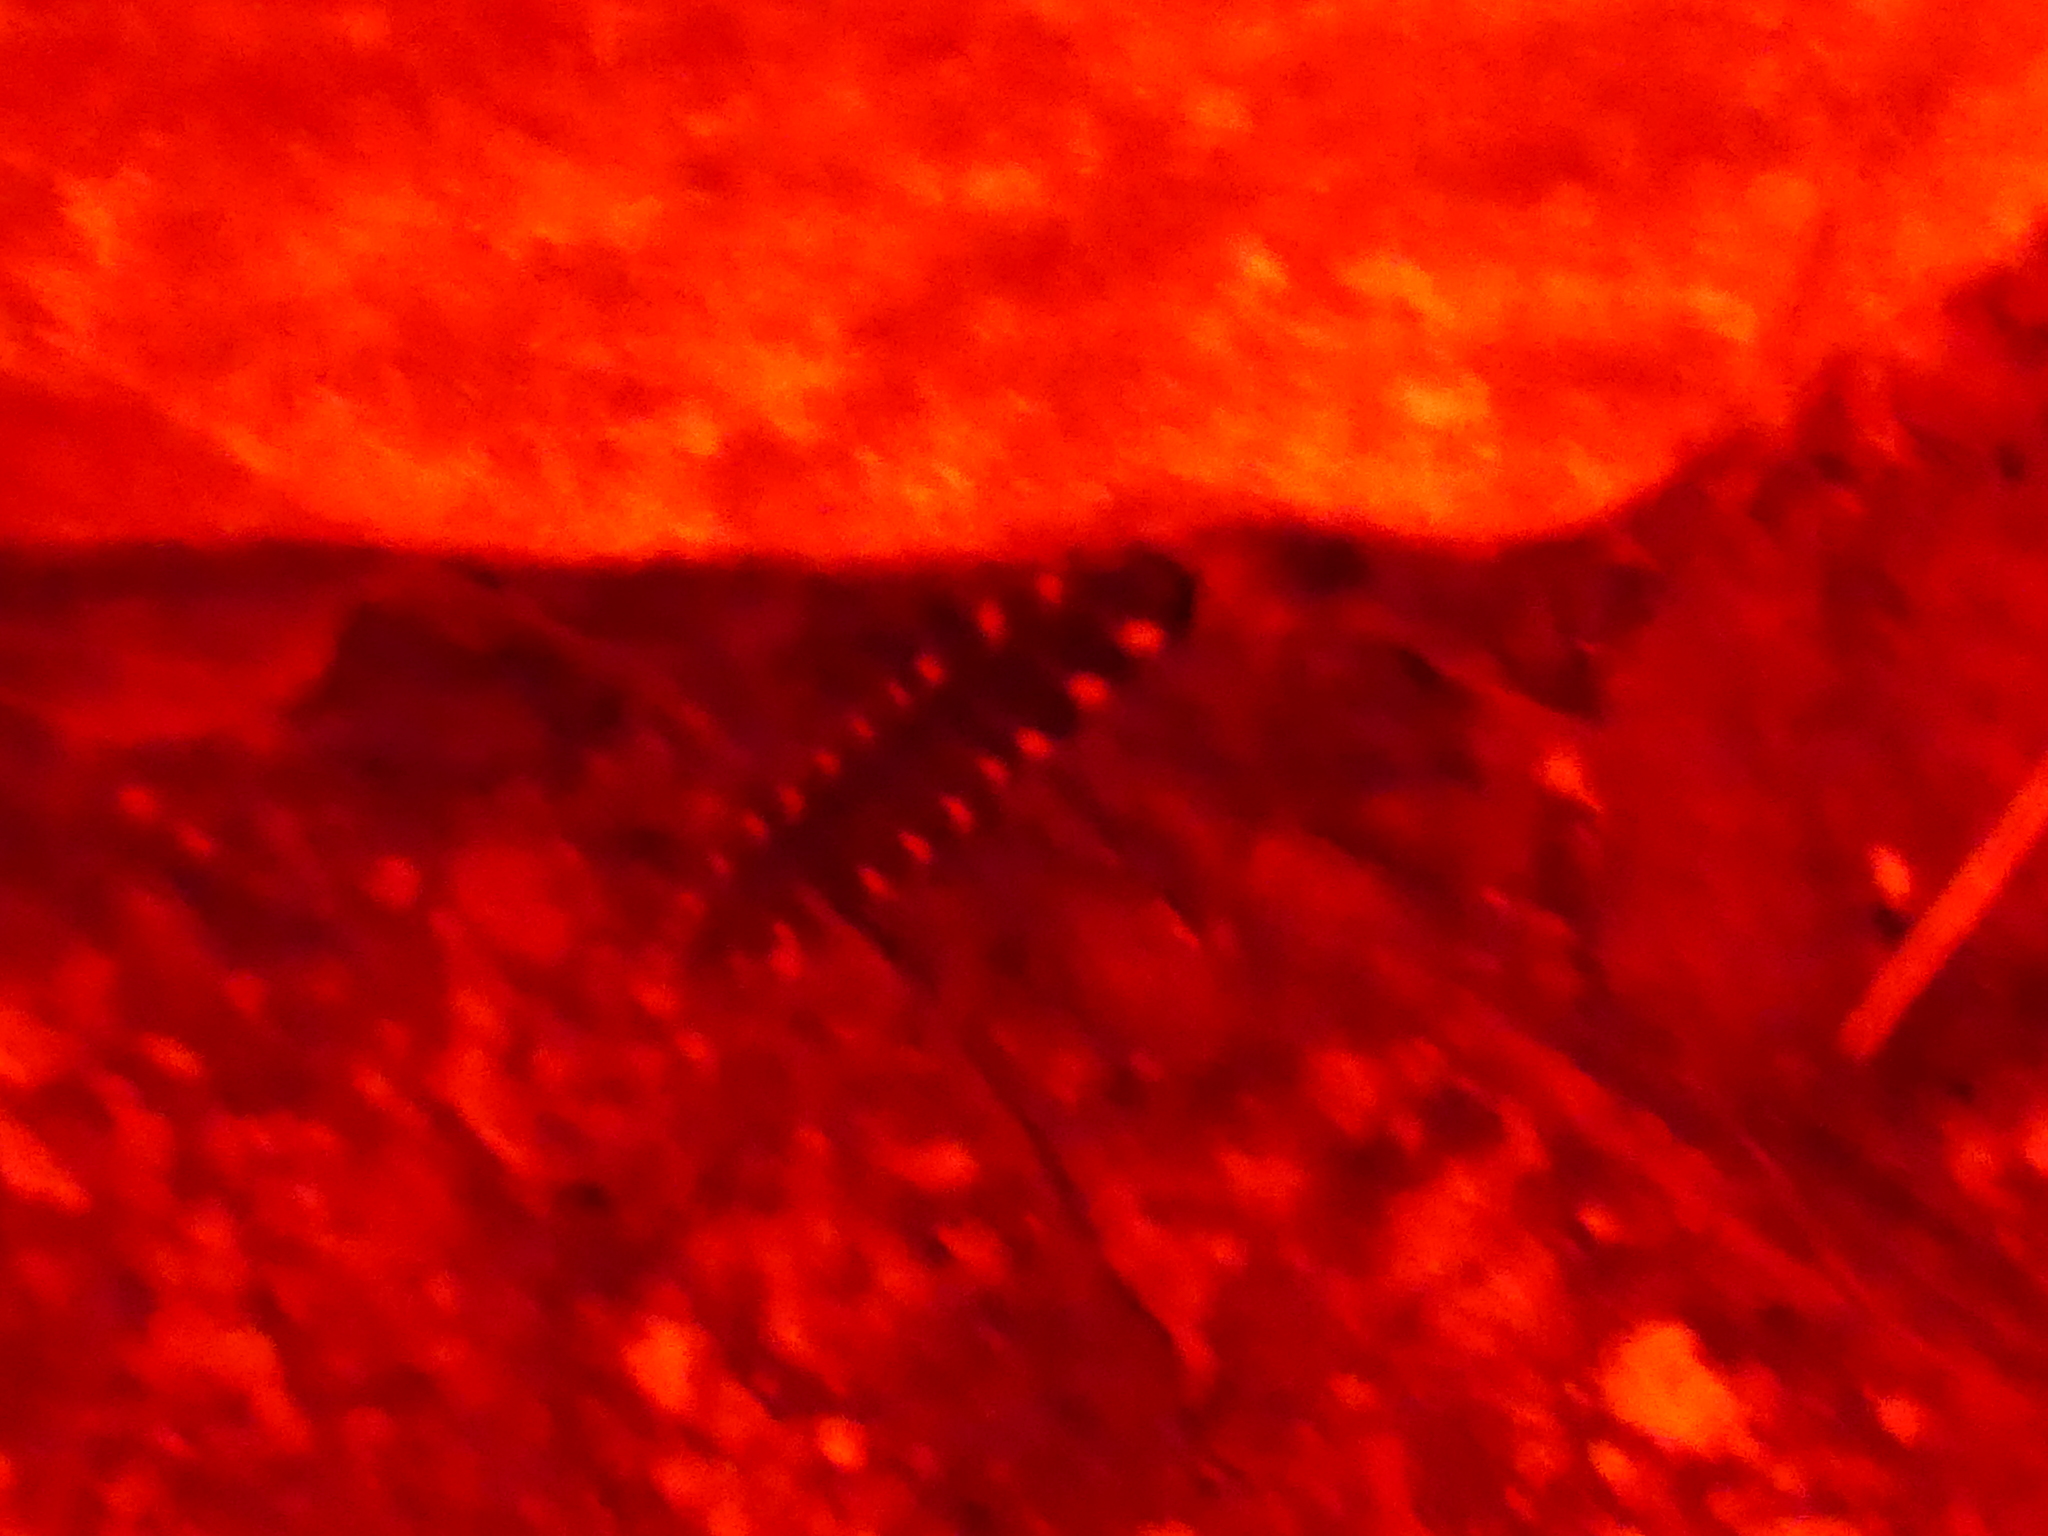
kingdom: Animalia
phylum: Arthropoda
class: Insecta
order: Coleoptera
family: Lampyridae
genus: Lampyris
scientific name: Lampyris noctiluca
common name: Glow-worm
